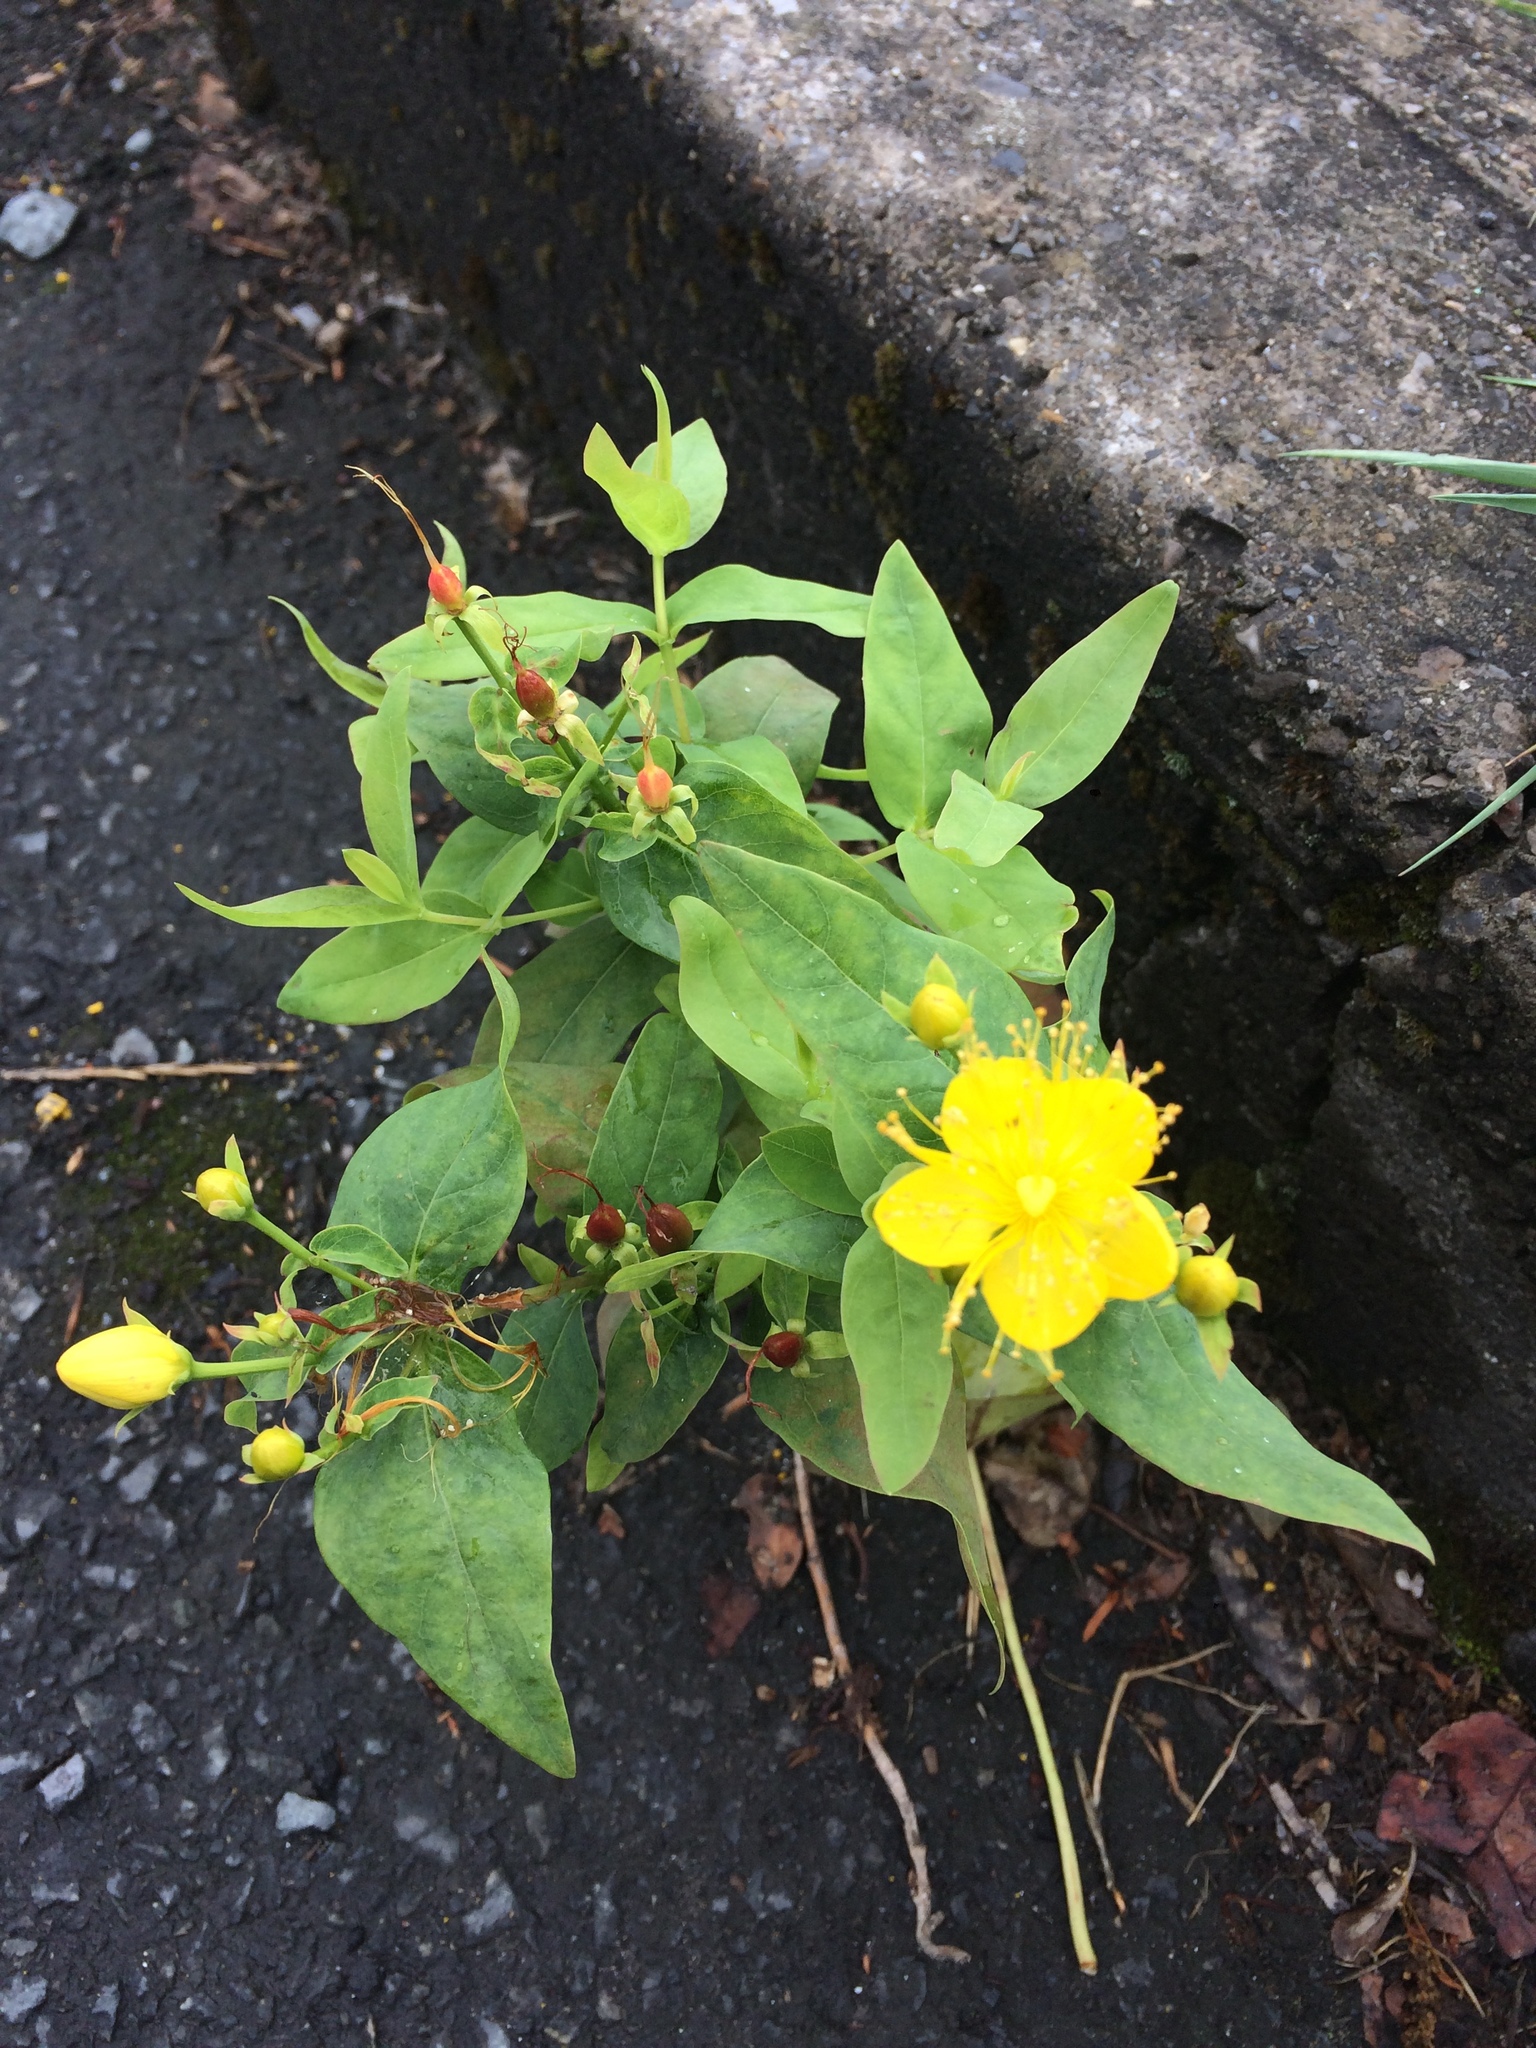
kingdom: Plantae
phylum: Tracheophyta
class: Magnoliopsida
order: Malpighiales
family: Hypericaceae
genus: Hypericum
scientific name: Hypericum hircinum
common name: Stinking tutsan
